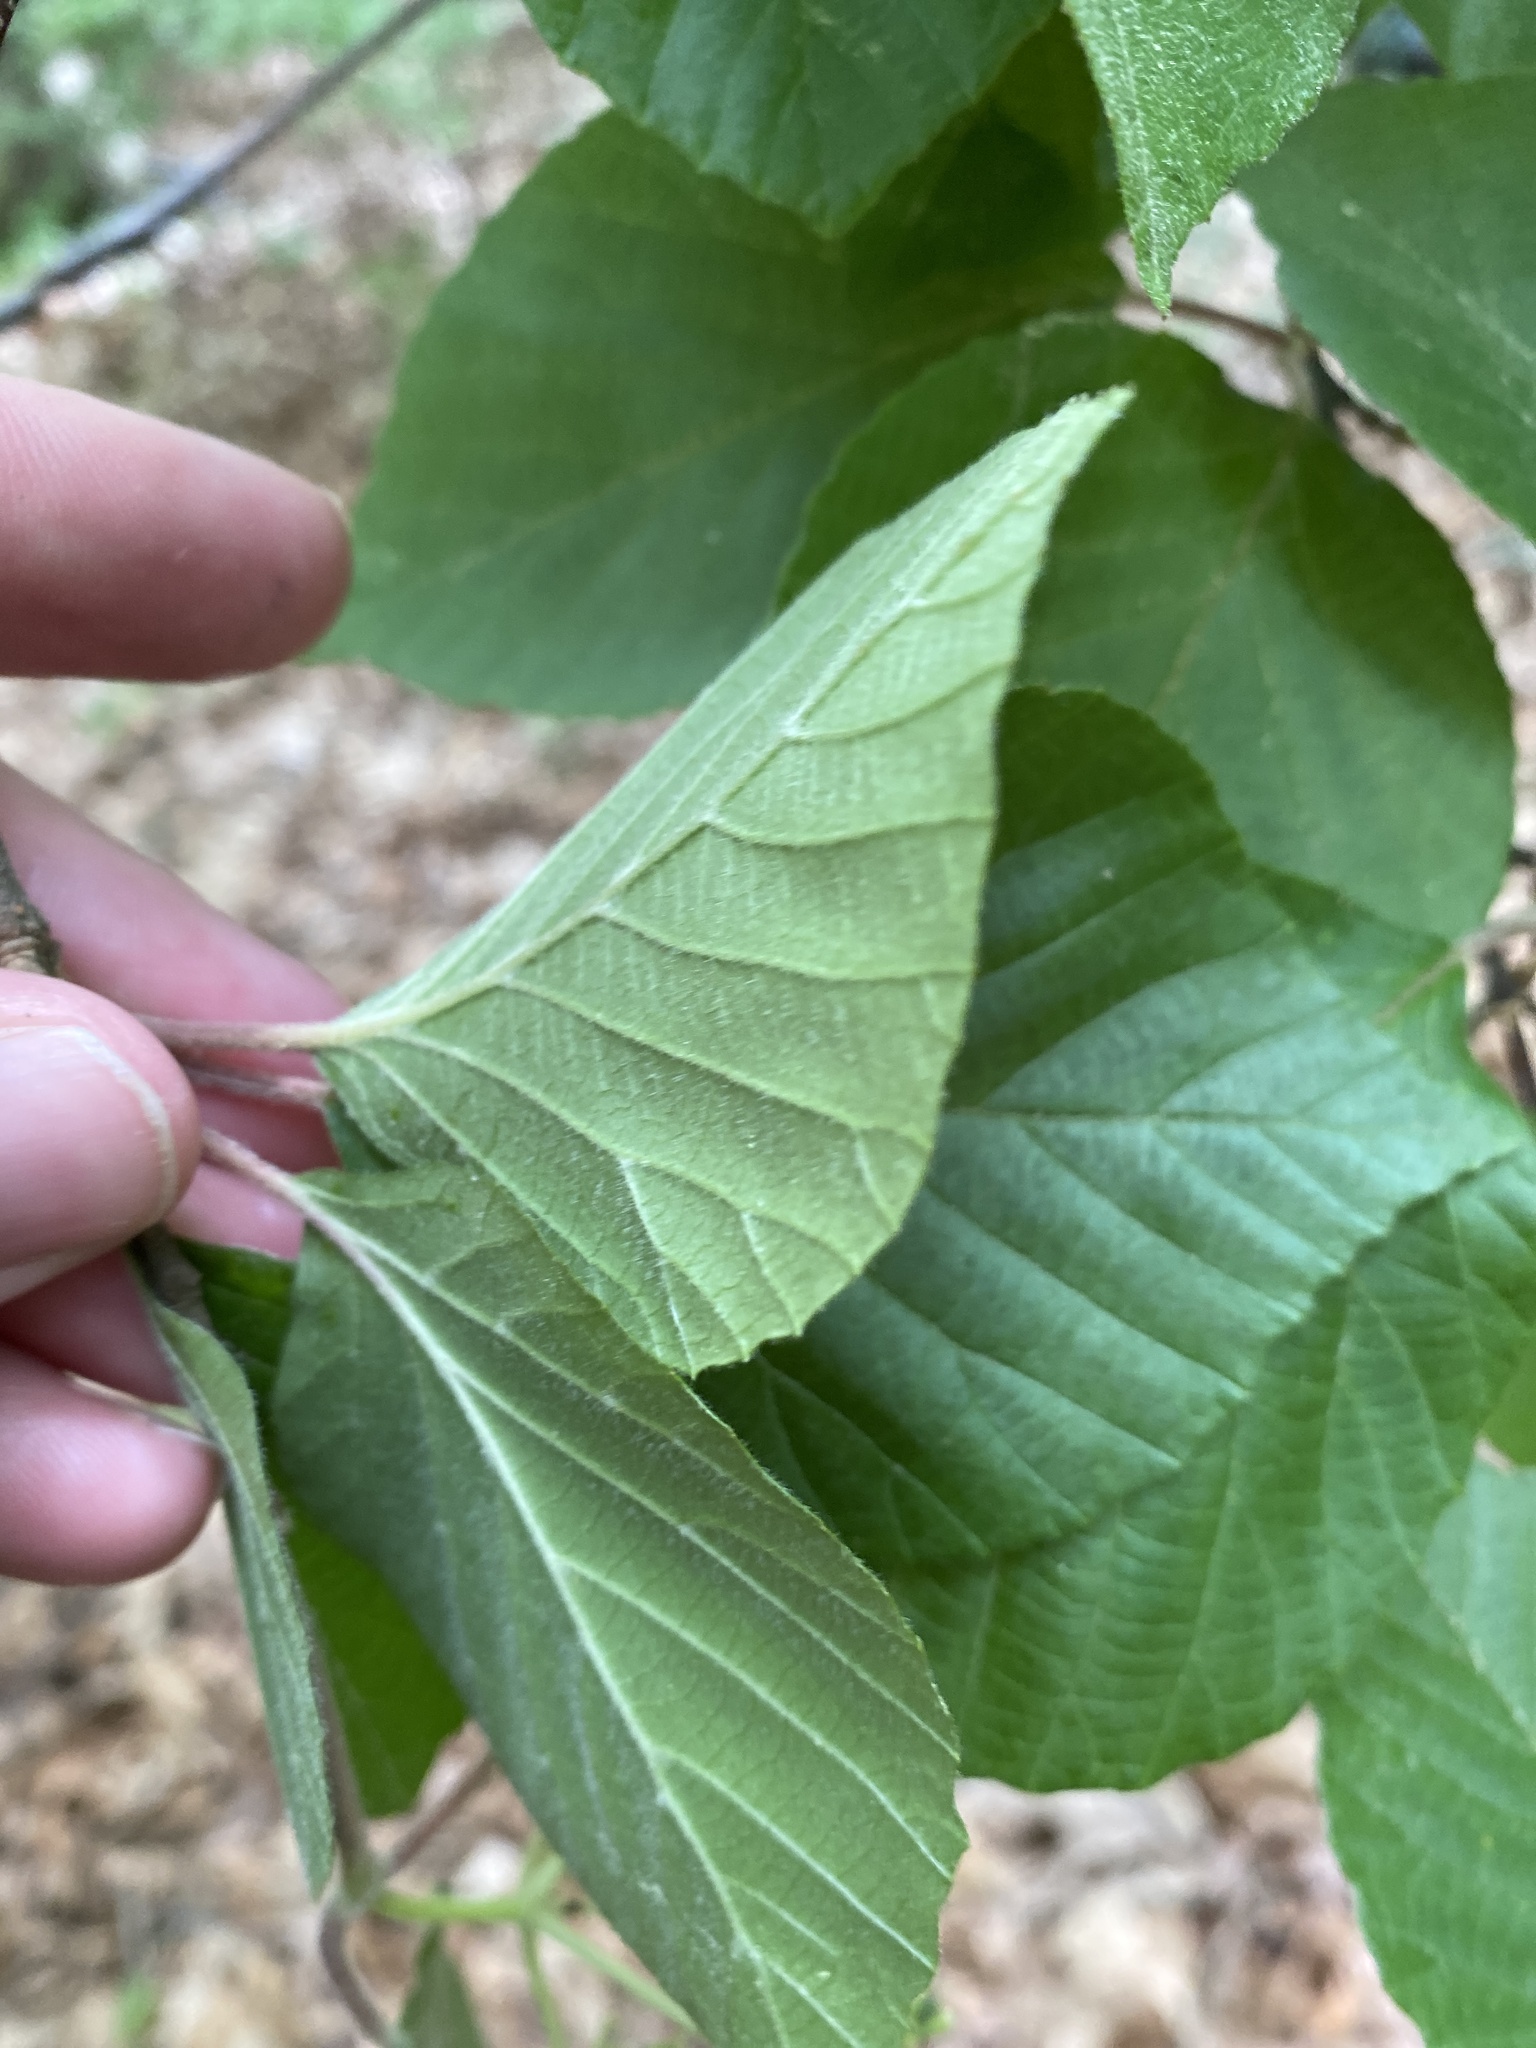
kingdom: Plantae
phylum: Tracheophyta
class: Magnoliopsida
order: Dipsacales
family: Viburnaceae
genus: Viburnum
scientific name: Viburnum dilatatum
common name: Linden arrowwood
